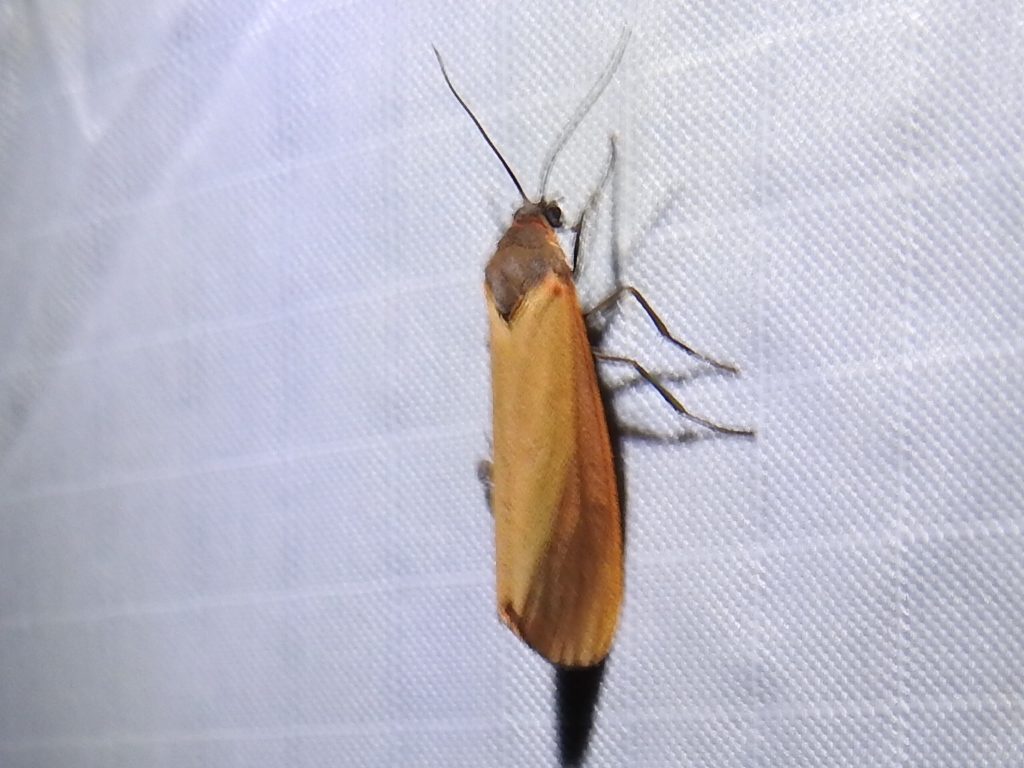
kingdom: Animalia
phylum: Arthropoda
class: Insecta
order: Lepidoptera
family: Erebidae
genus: Virbia
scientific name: Virbia ostenta
